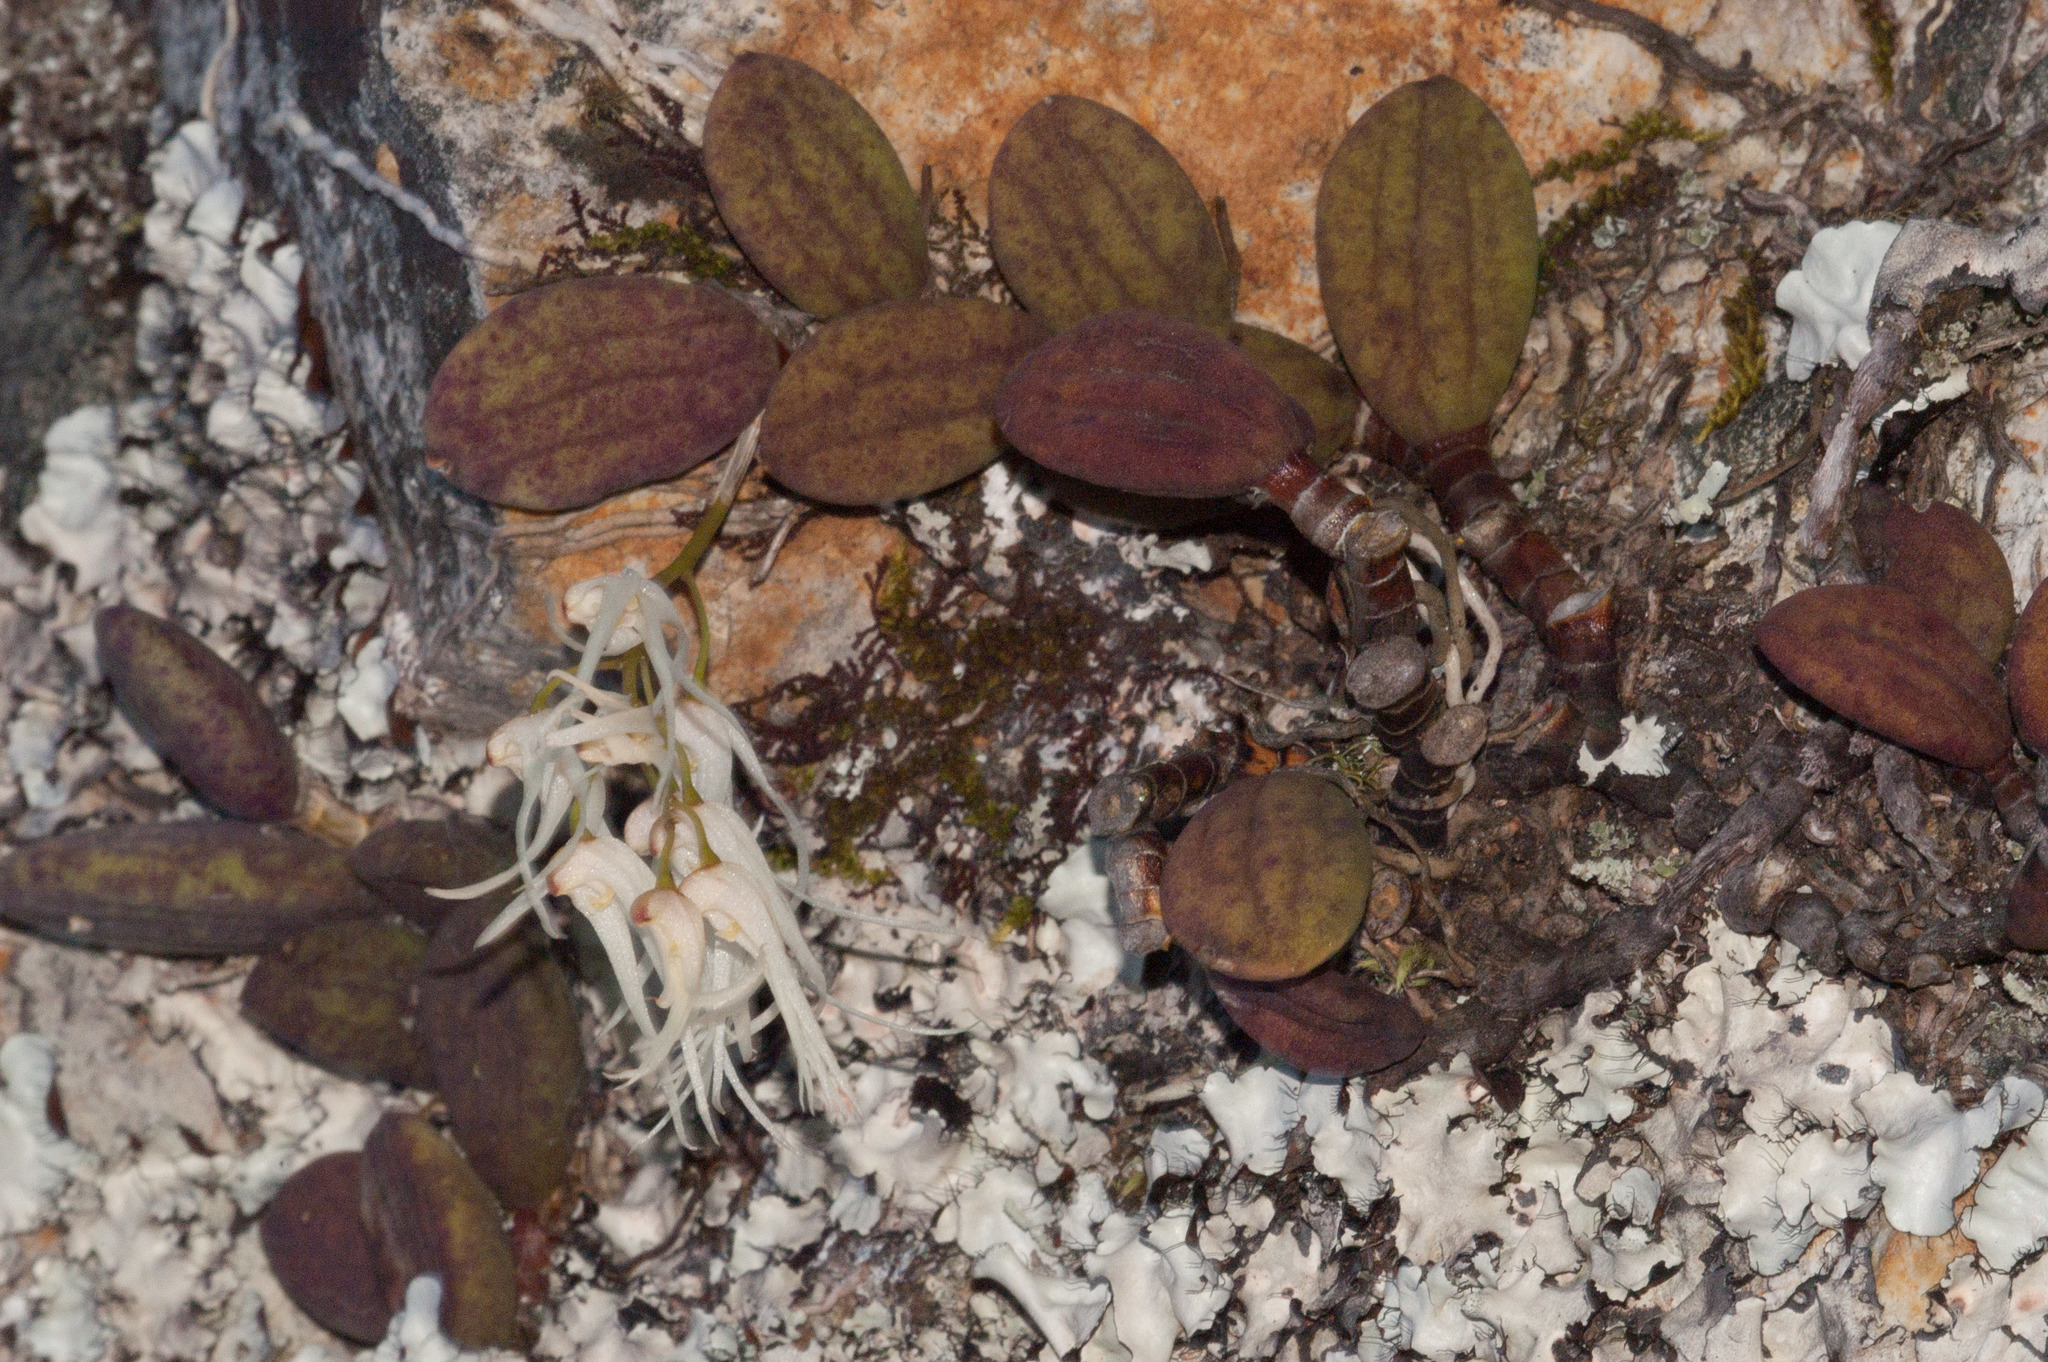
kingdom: Plantae
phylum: Tracheophyta
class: Liliopsida
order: Asparagales
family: Orchidaceae
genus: Dendrobium
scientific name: Dendrobium linguiforme
